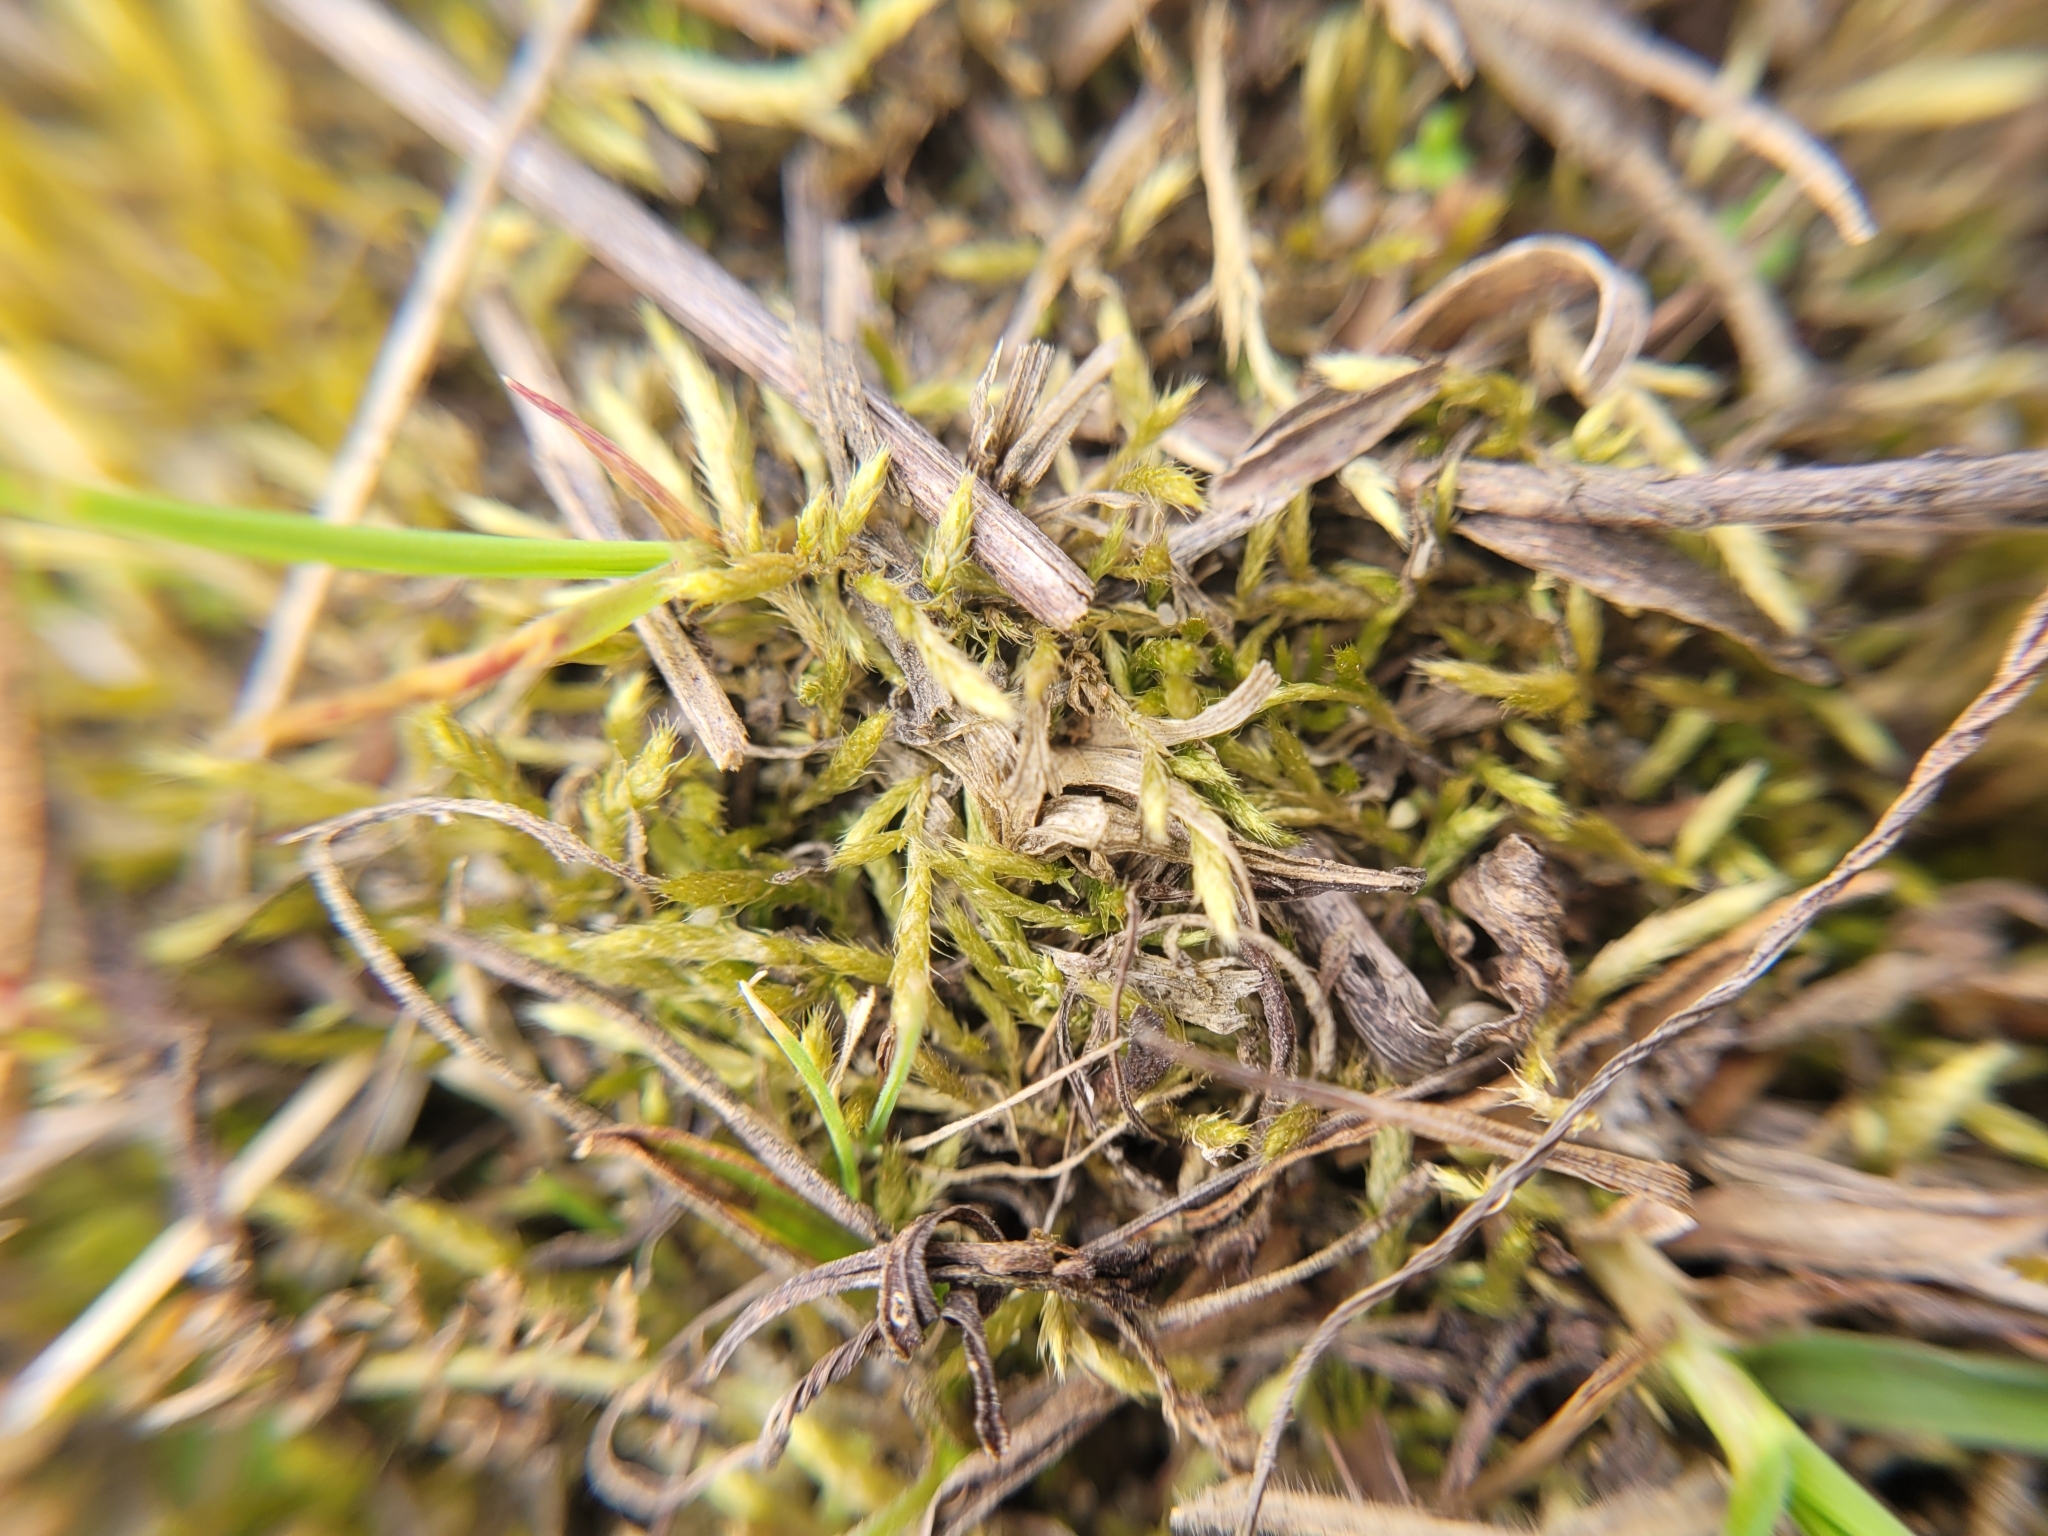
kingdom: Plantae
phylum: Bryophyta
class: Bryopsida
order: Hypnales
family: Brachytheciaceae
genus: Brachythecium
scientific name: Brachythecium albicans
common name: Whitish ragged moss
